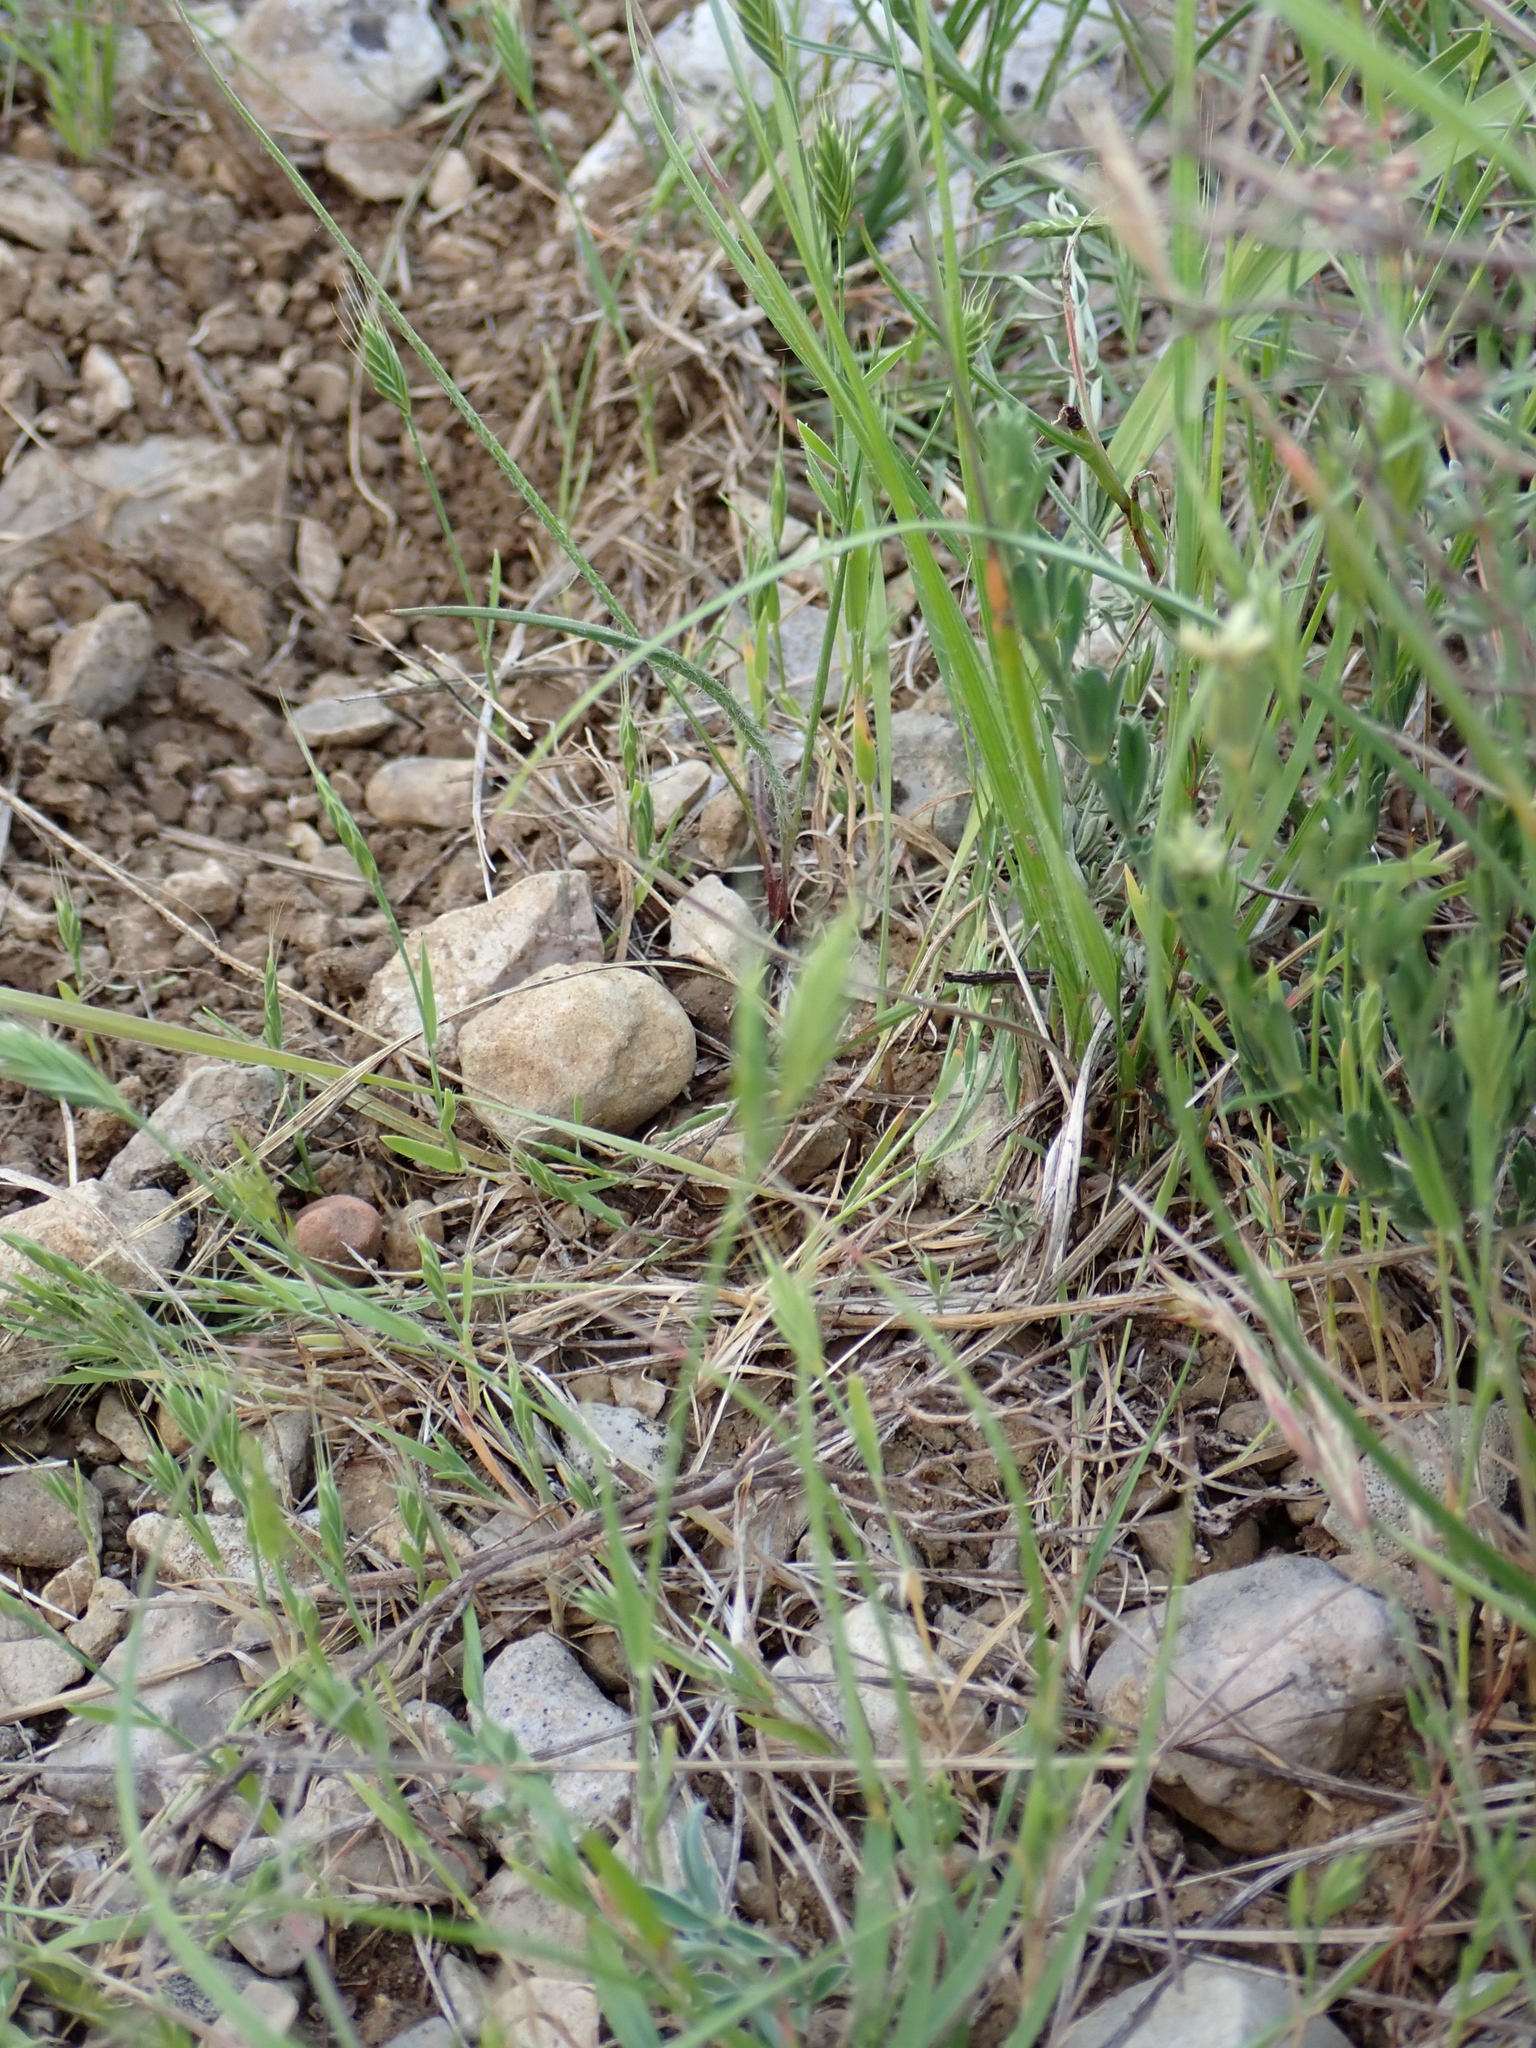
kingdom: Plantae
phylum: Tracheophyta
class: Liliopsida
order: Poales
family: Poaceae
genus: Brachypodium
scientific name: Brachypodium distachyon
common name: Stiff brome
